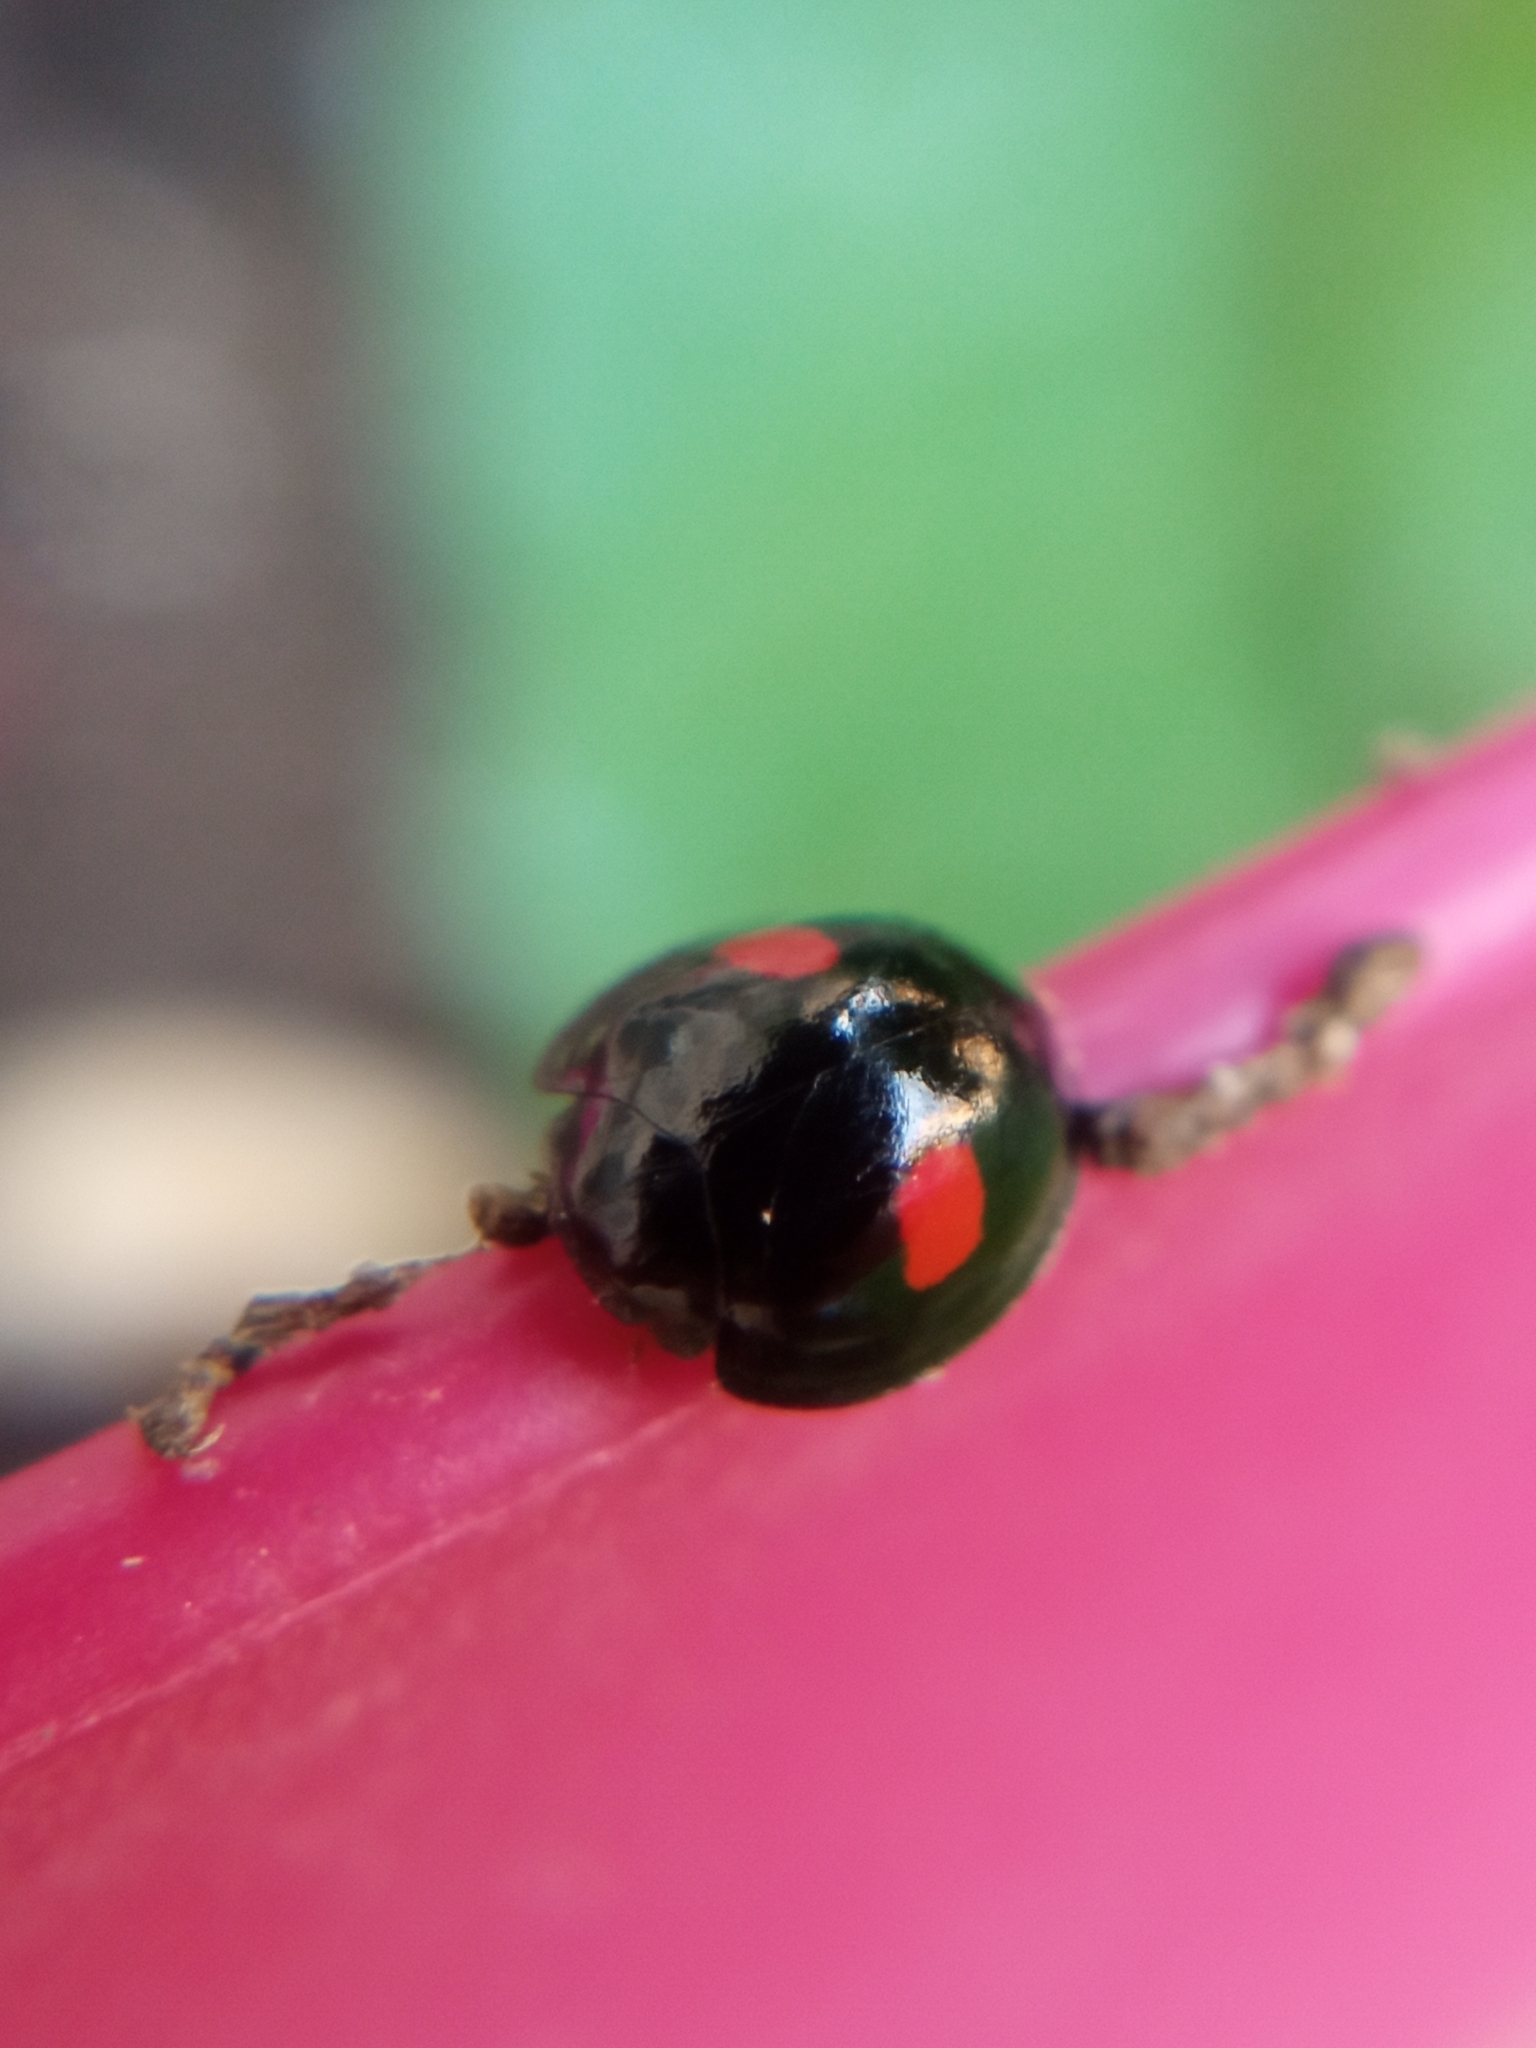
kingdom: Animalia
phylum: Arthropoda
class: Insecta
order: Coleoptera
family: Coccinellidae
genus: Chilocorus
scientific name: Chilocorus renipustulatus
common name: Kidney-spot ladybird
